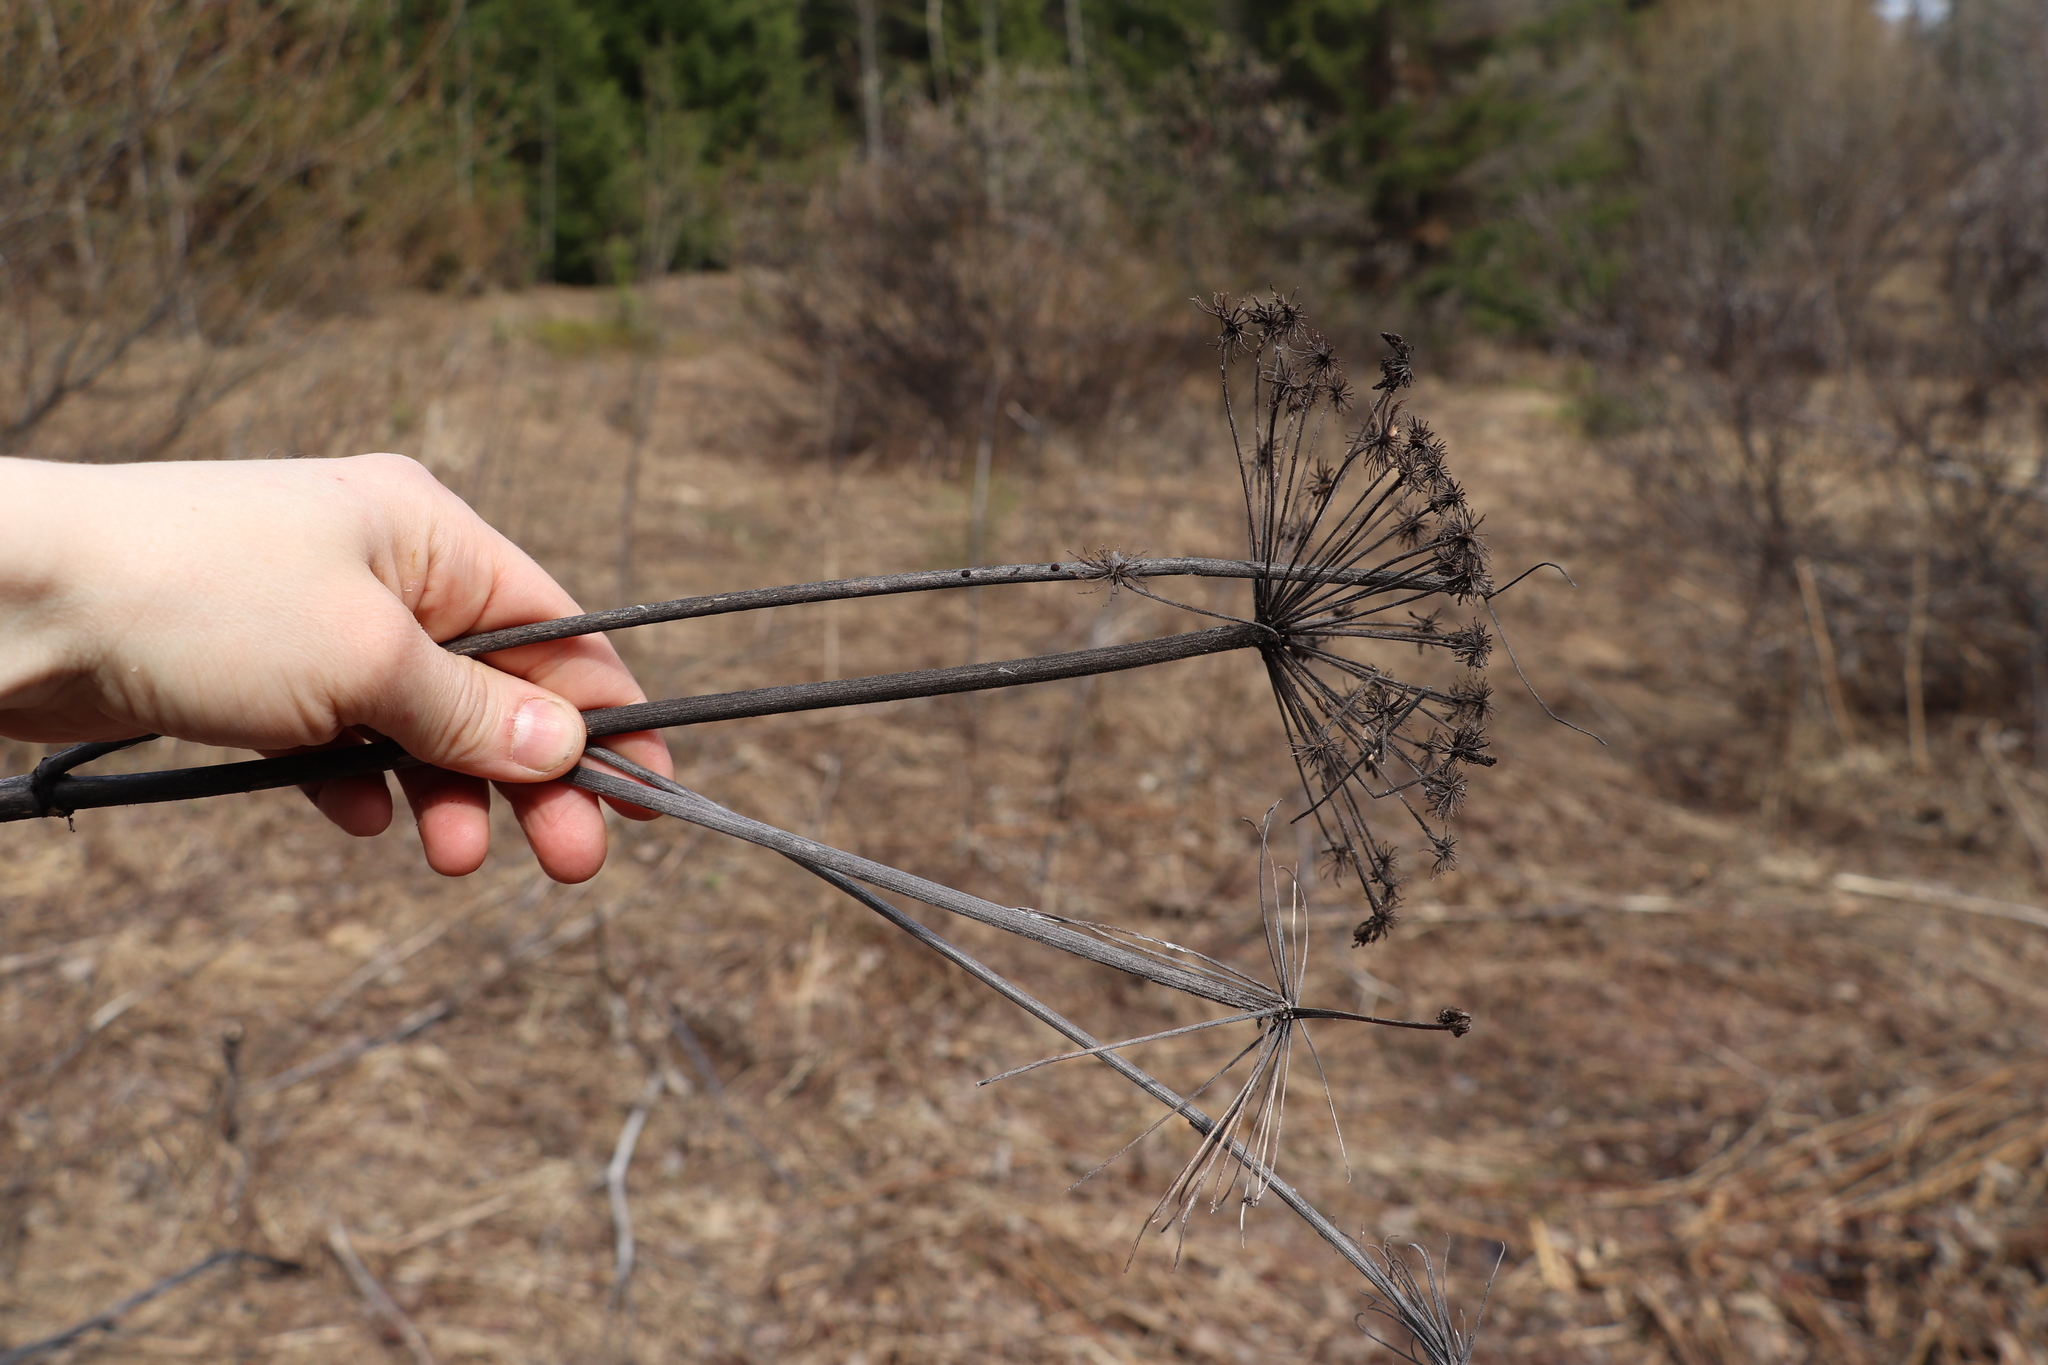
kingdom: Plantae
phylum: Tracheophyta
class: Magnoliopsida
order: Apiales
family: Apiaceae
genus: Angelica
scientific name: Angelica sylvestris
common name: Wild angelica
